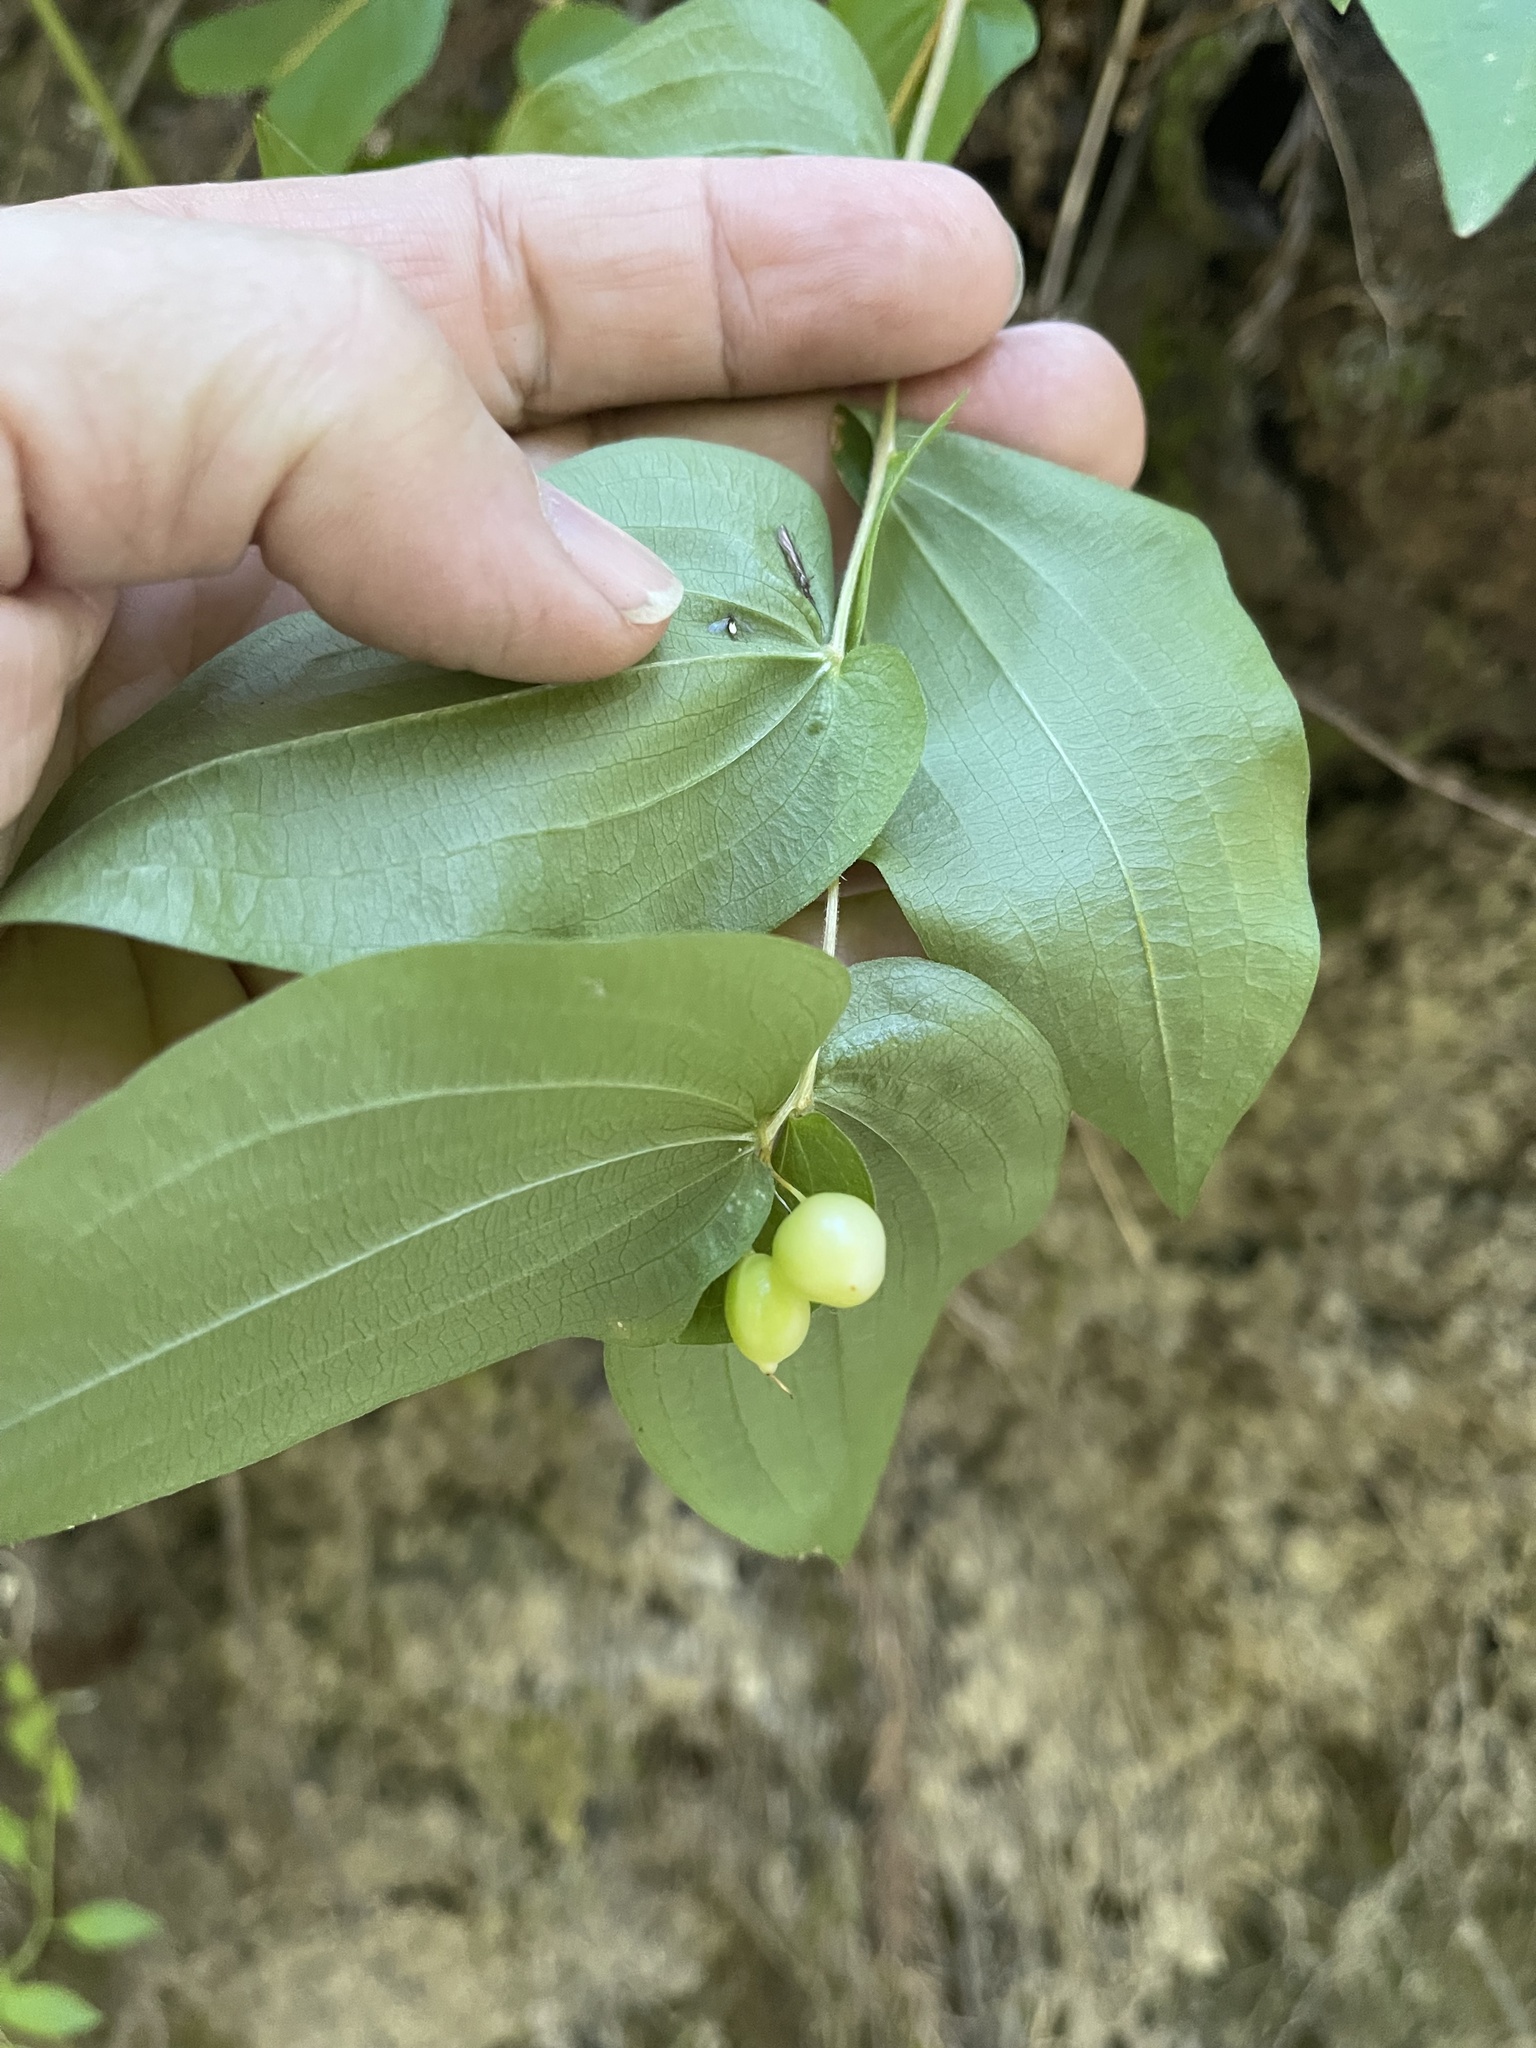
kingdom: Plantae
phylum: Tracheophyta
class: Liliopsida
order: Liliales
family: Liliaceae
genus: Prosartes
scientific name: Prosartes hookeri
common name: Fairy-bells
